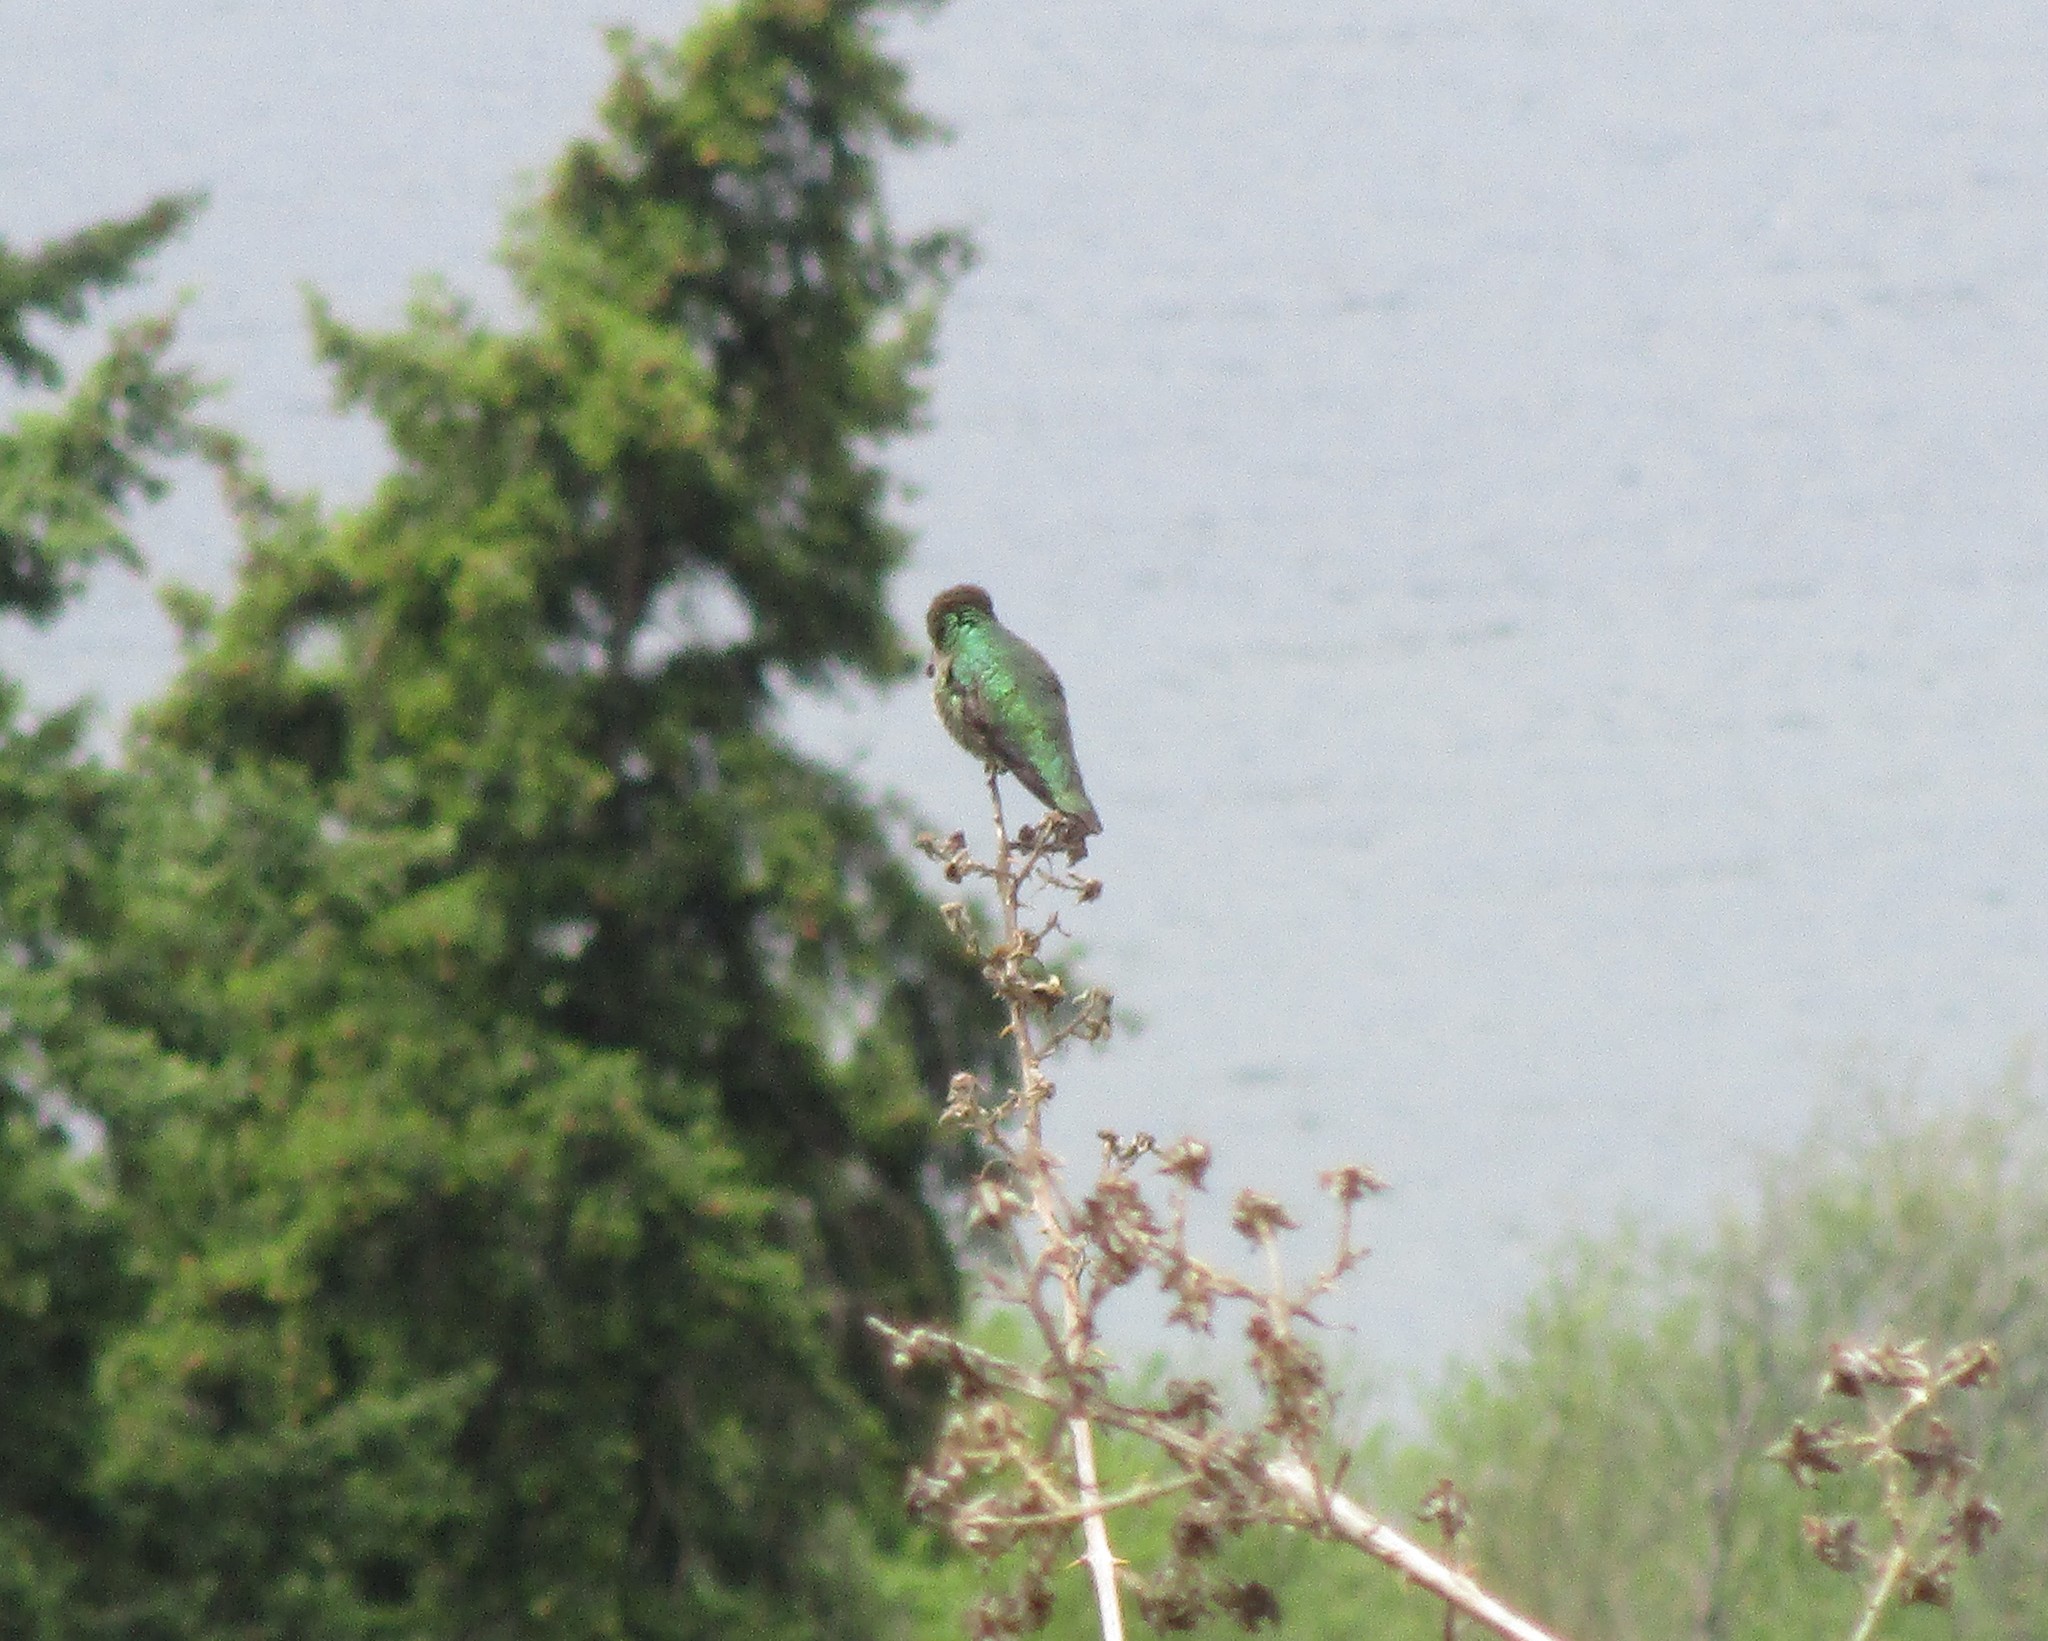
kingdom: Animalia
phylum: Chordata
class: Aves
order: Apodiformes
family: Trochilidae
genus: Calypte
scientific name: Calypte anna
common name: Anna's hummingbird
